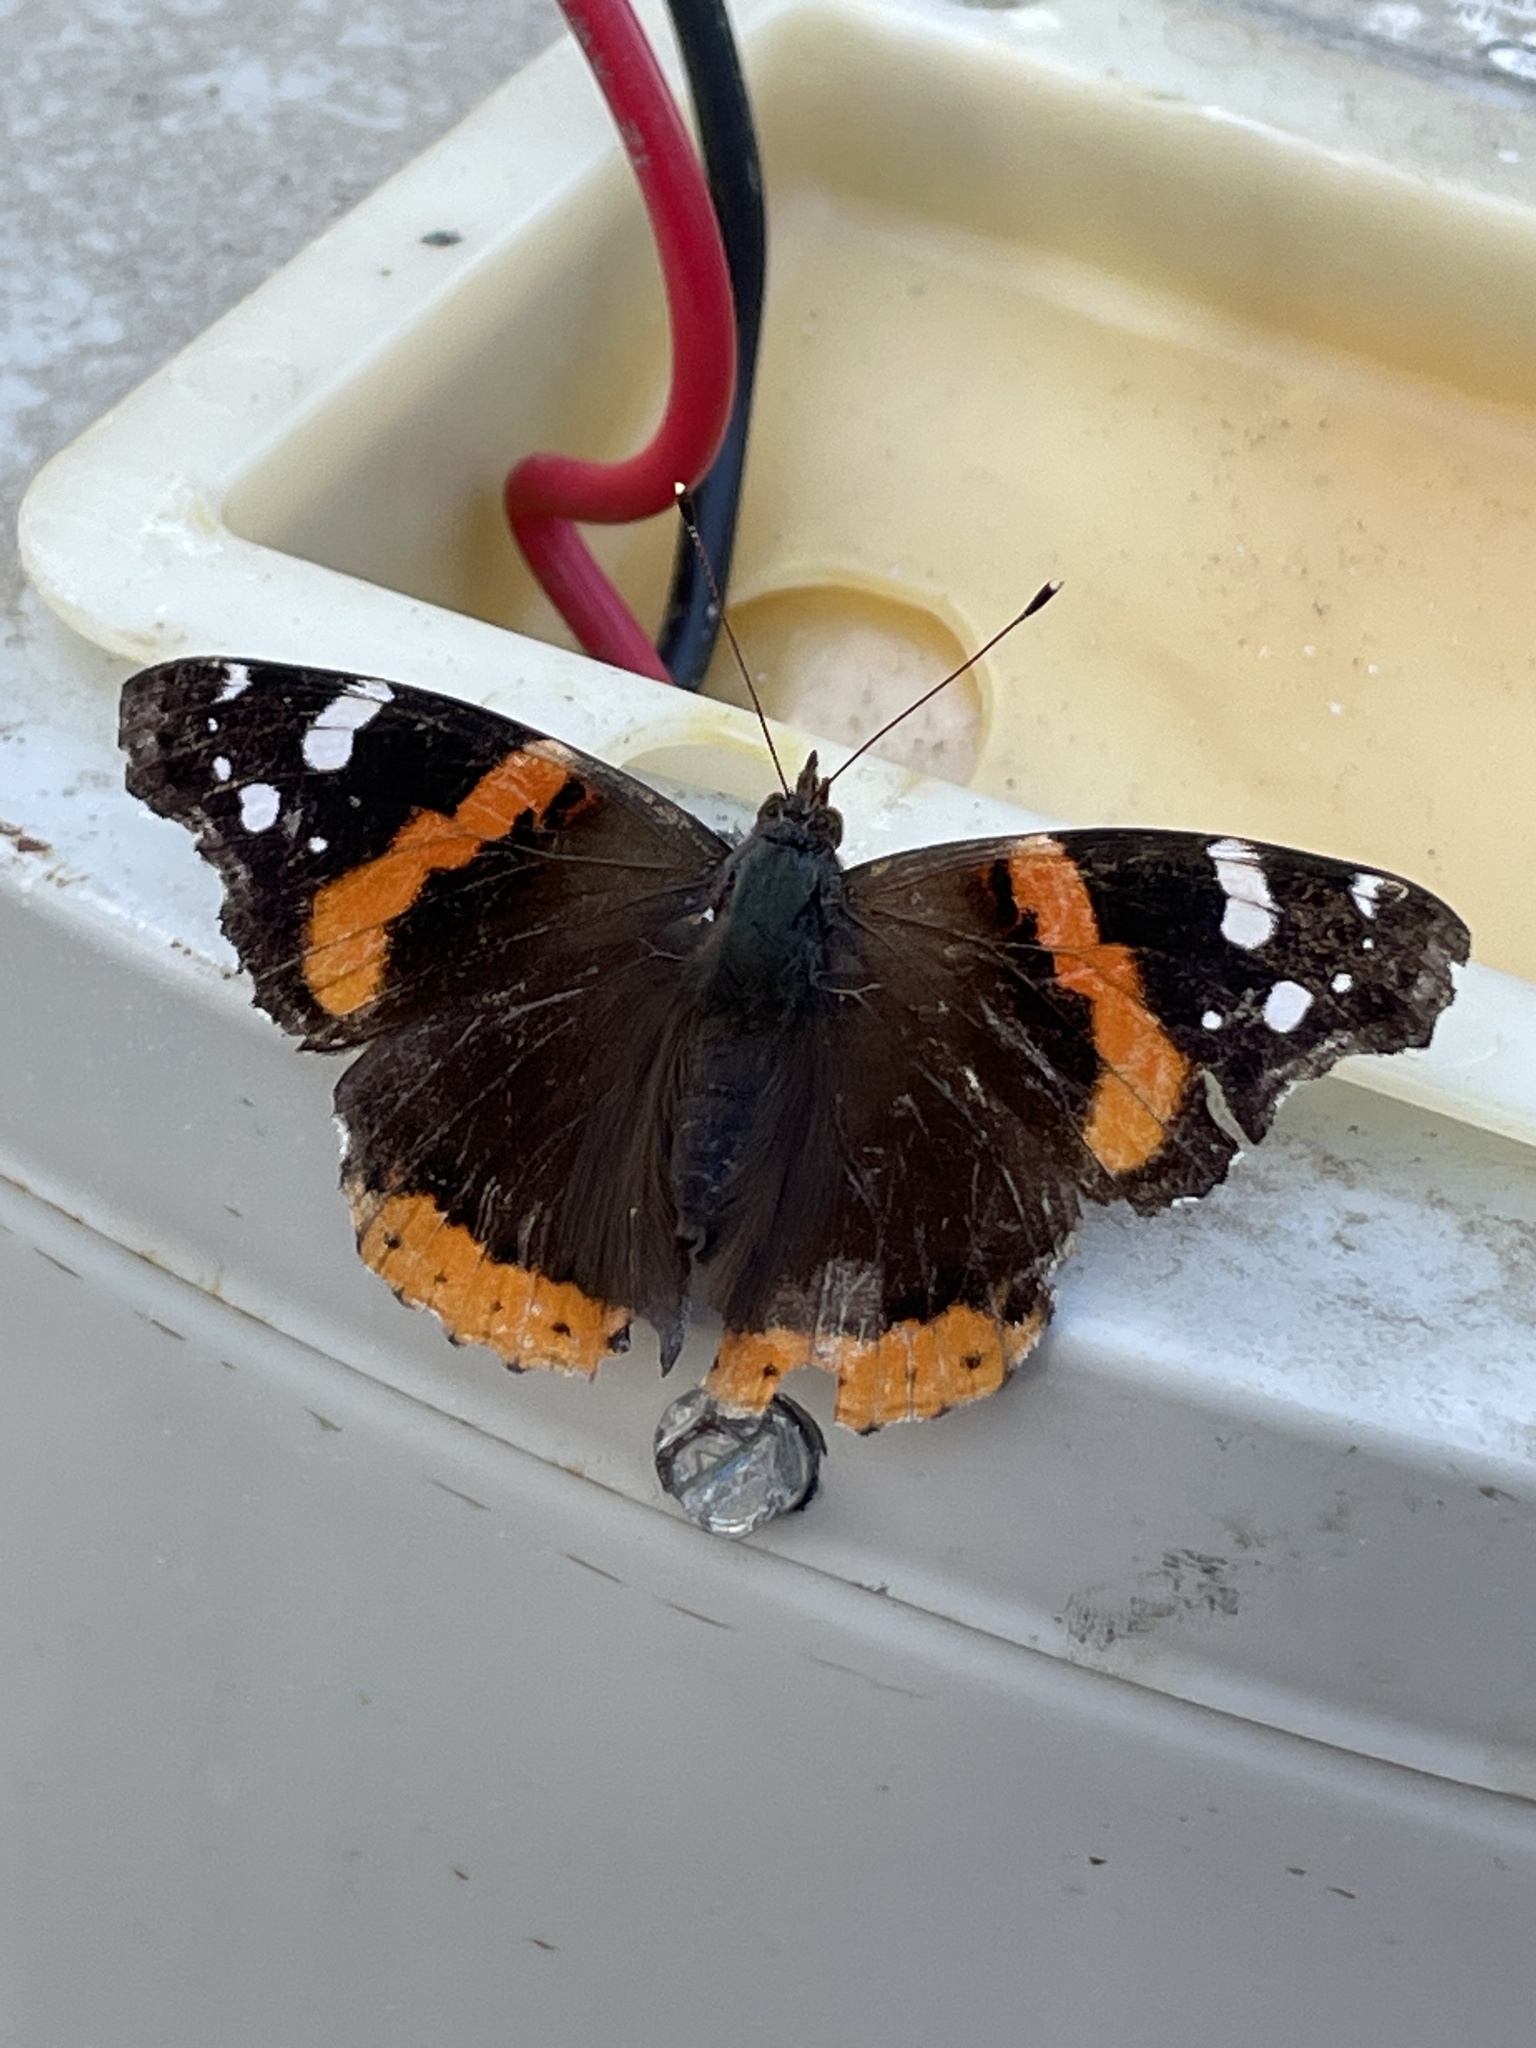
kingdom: Animalia
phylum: Arthropoda
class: Insecta
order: Lepidoptera
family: Nymphalidae
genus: Vanessa
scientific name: Vanessa atalanta
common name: Red admiral
